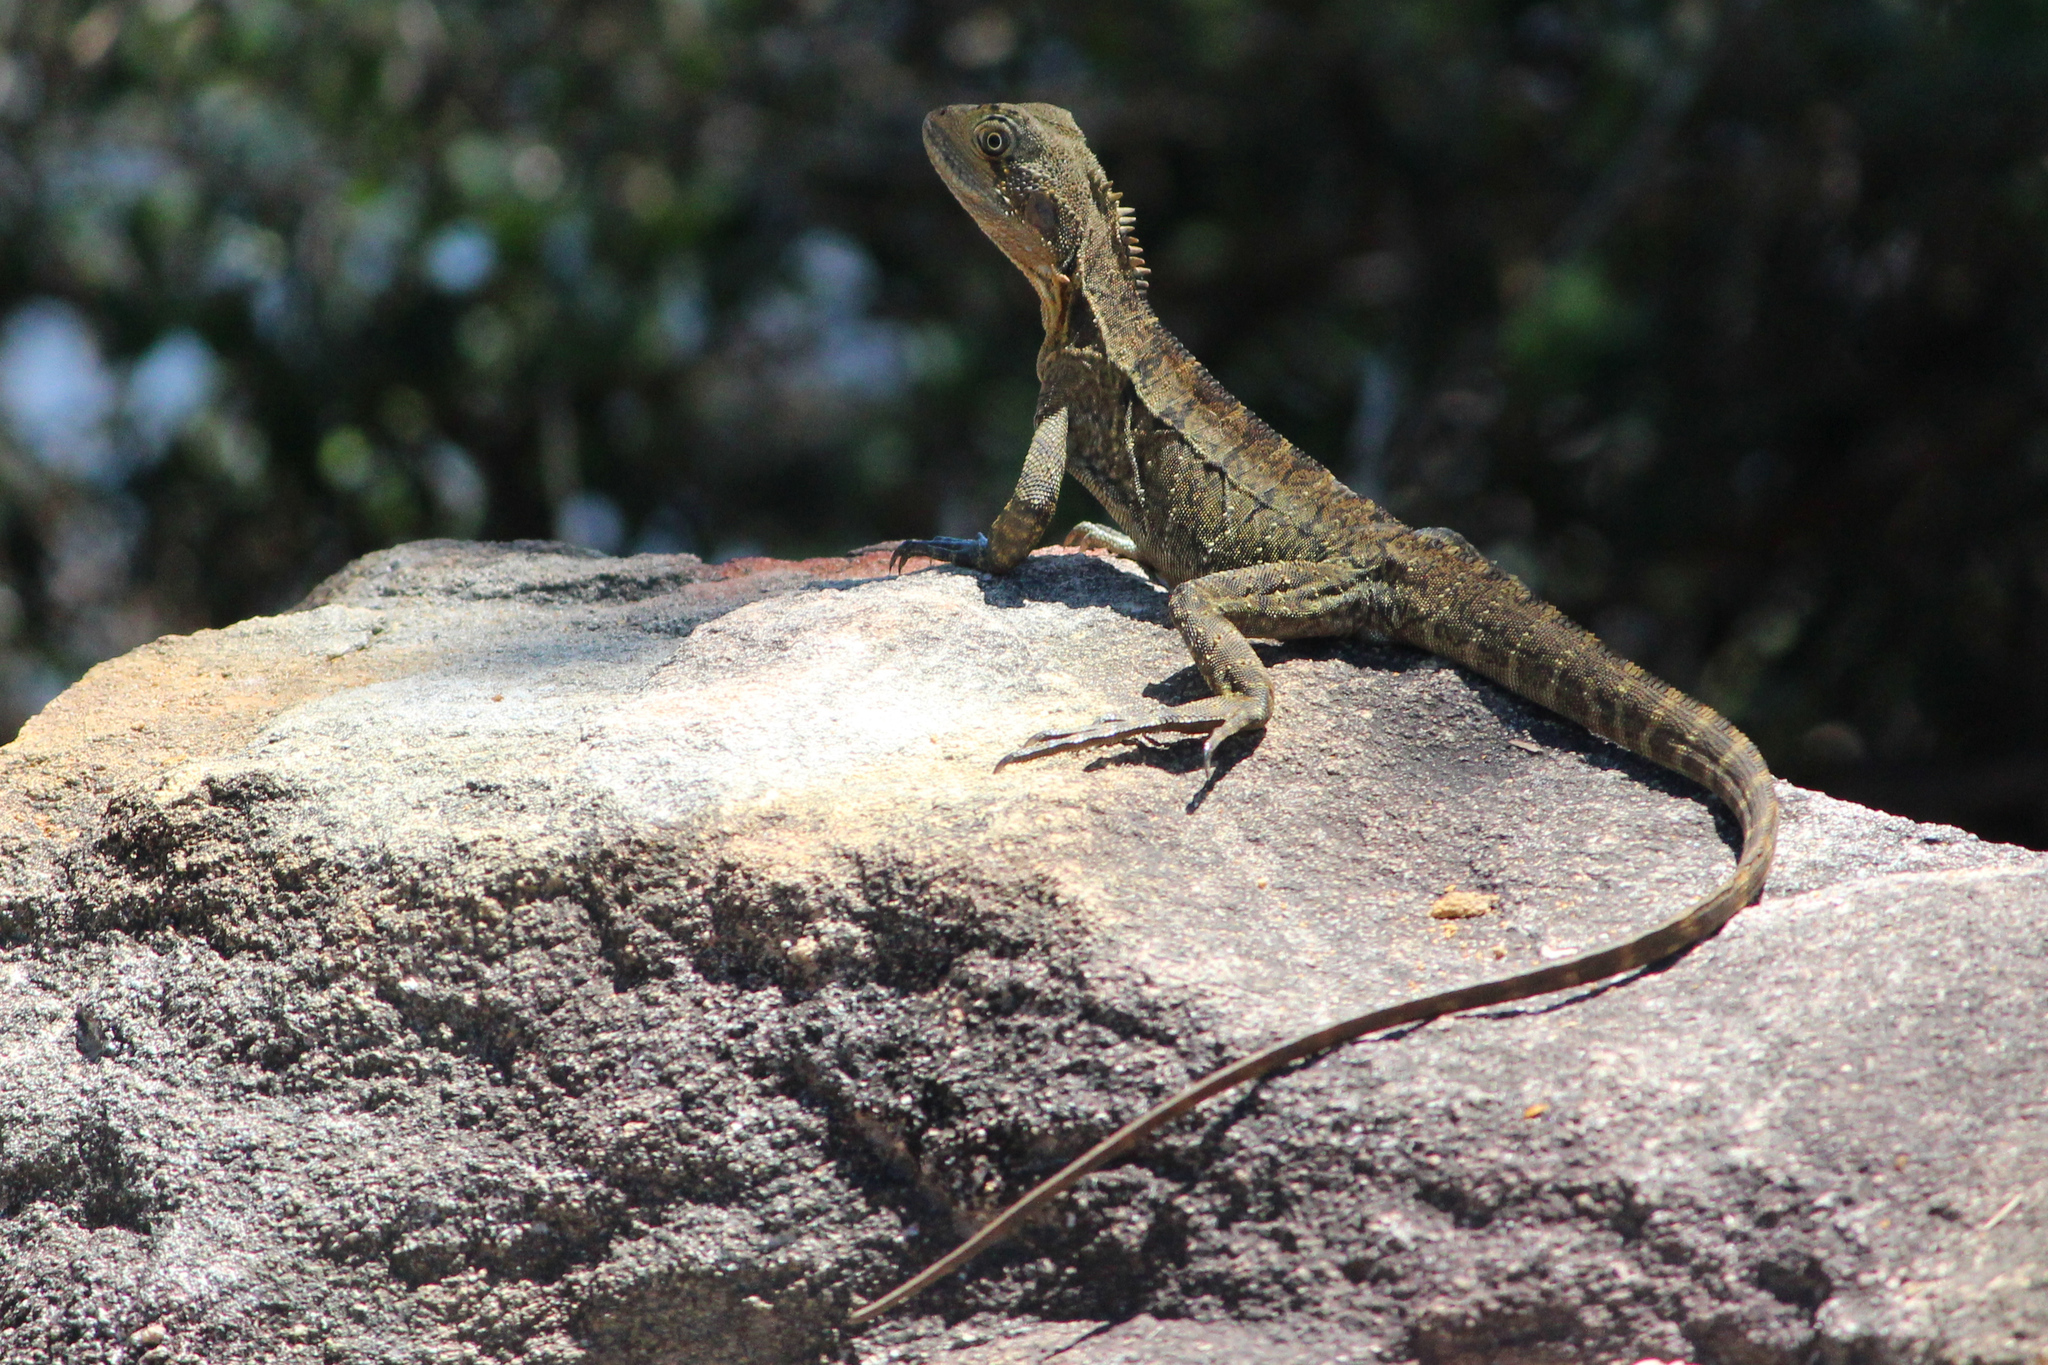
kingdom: Animalia
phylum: Chordata
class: Squamata
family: Agamidae
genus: Intellagama
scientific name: Intellagama lesueurii
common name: Eastern water dragon
